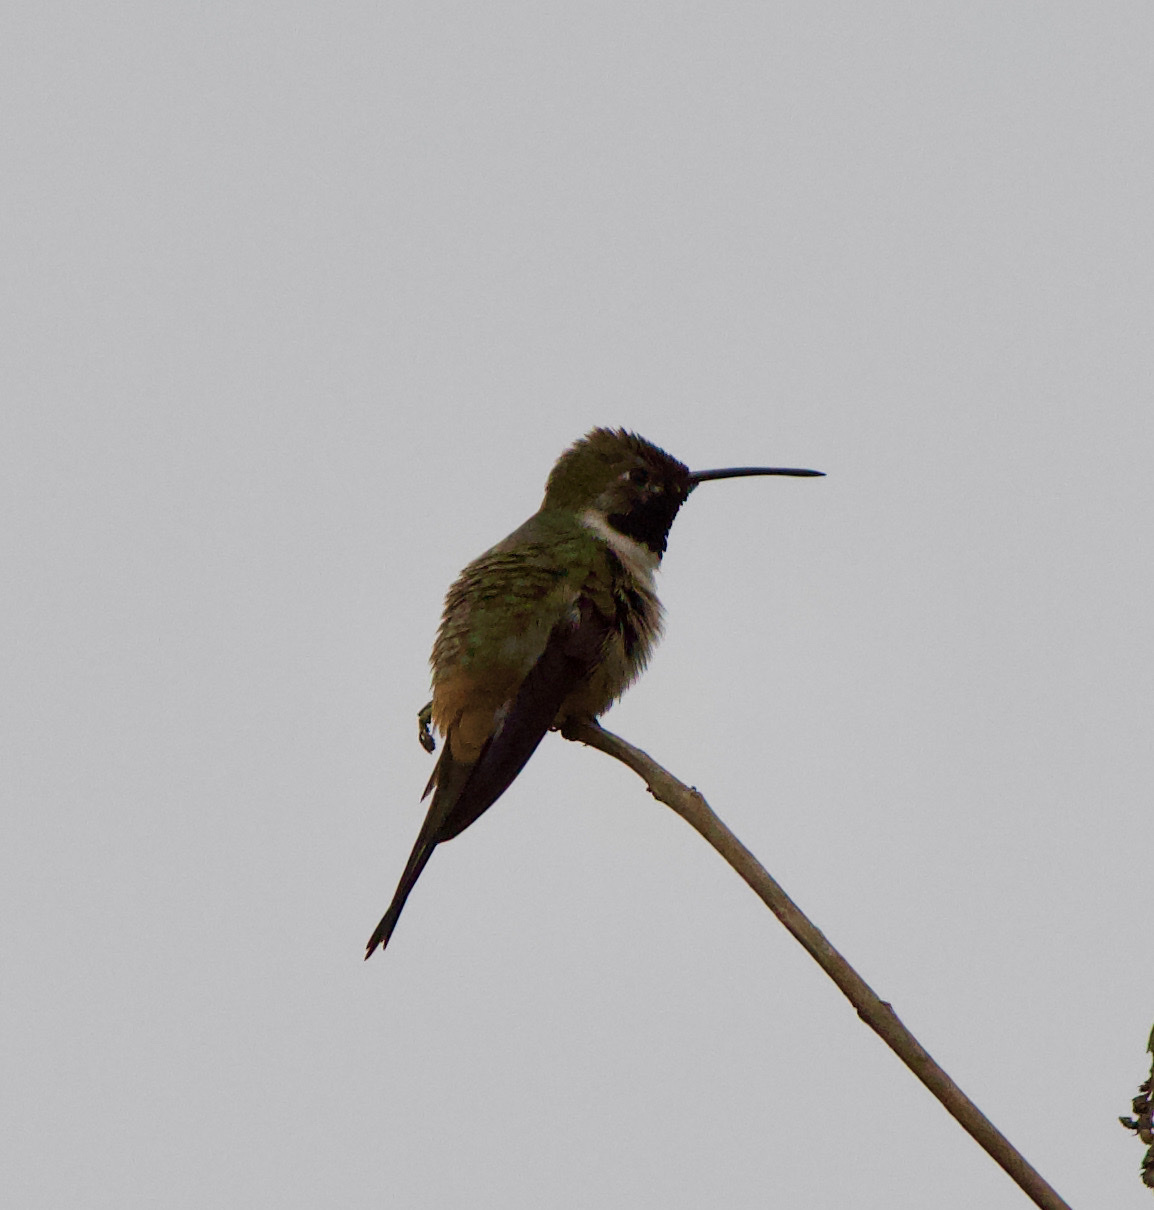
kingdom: Animalia
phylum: Chordata
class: Aves
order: Apodiformes
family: Trochilidae
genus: Rhodopis
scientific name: Rhodopis vesper
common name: Oasis hummingbird
